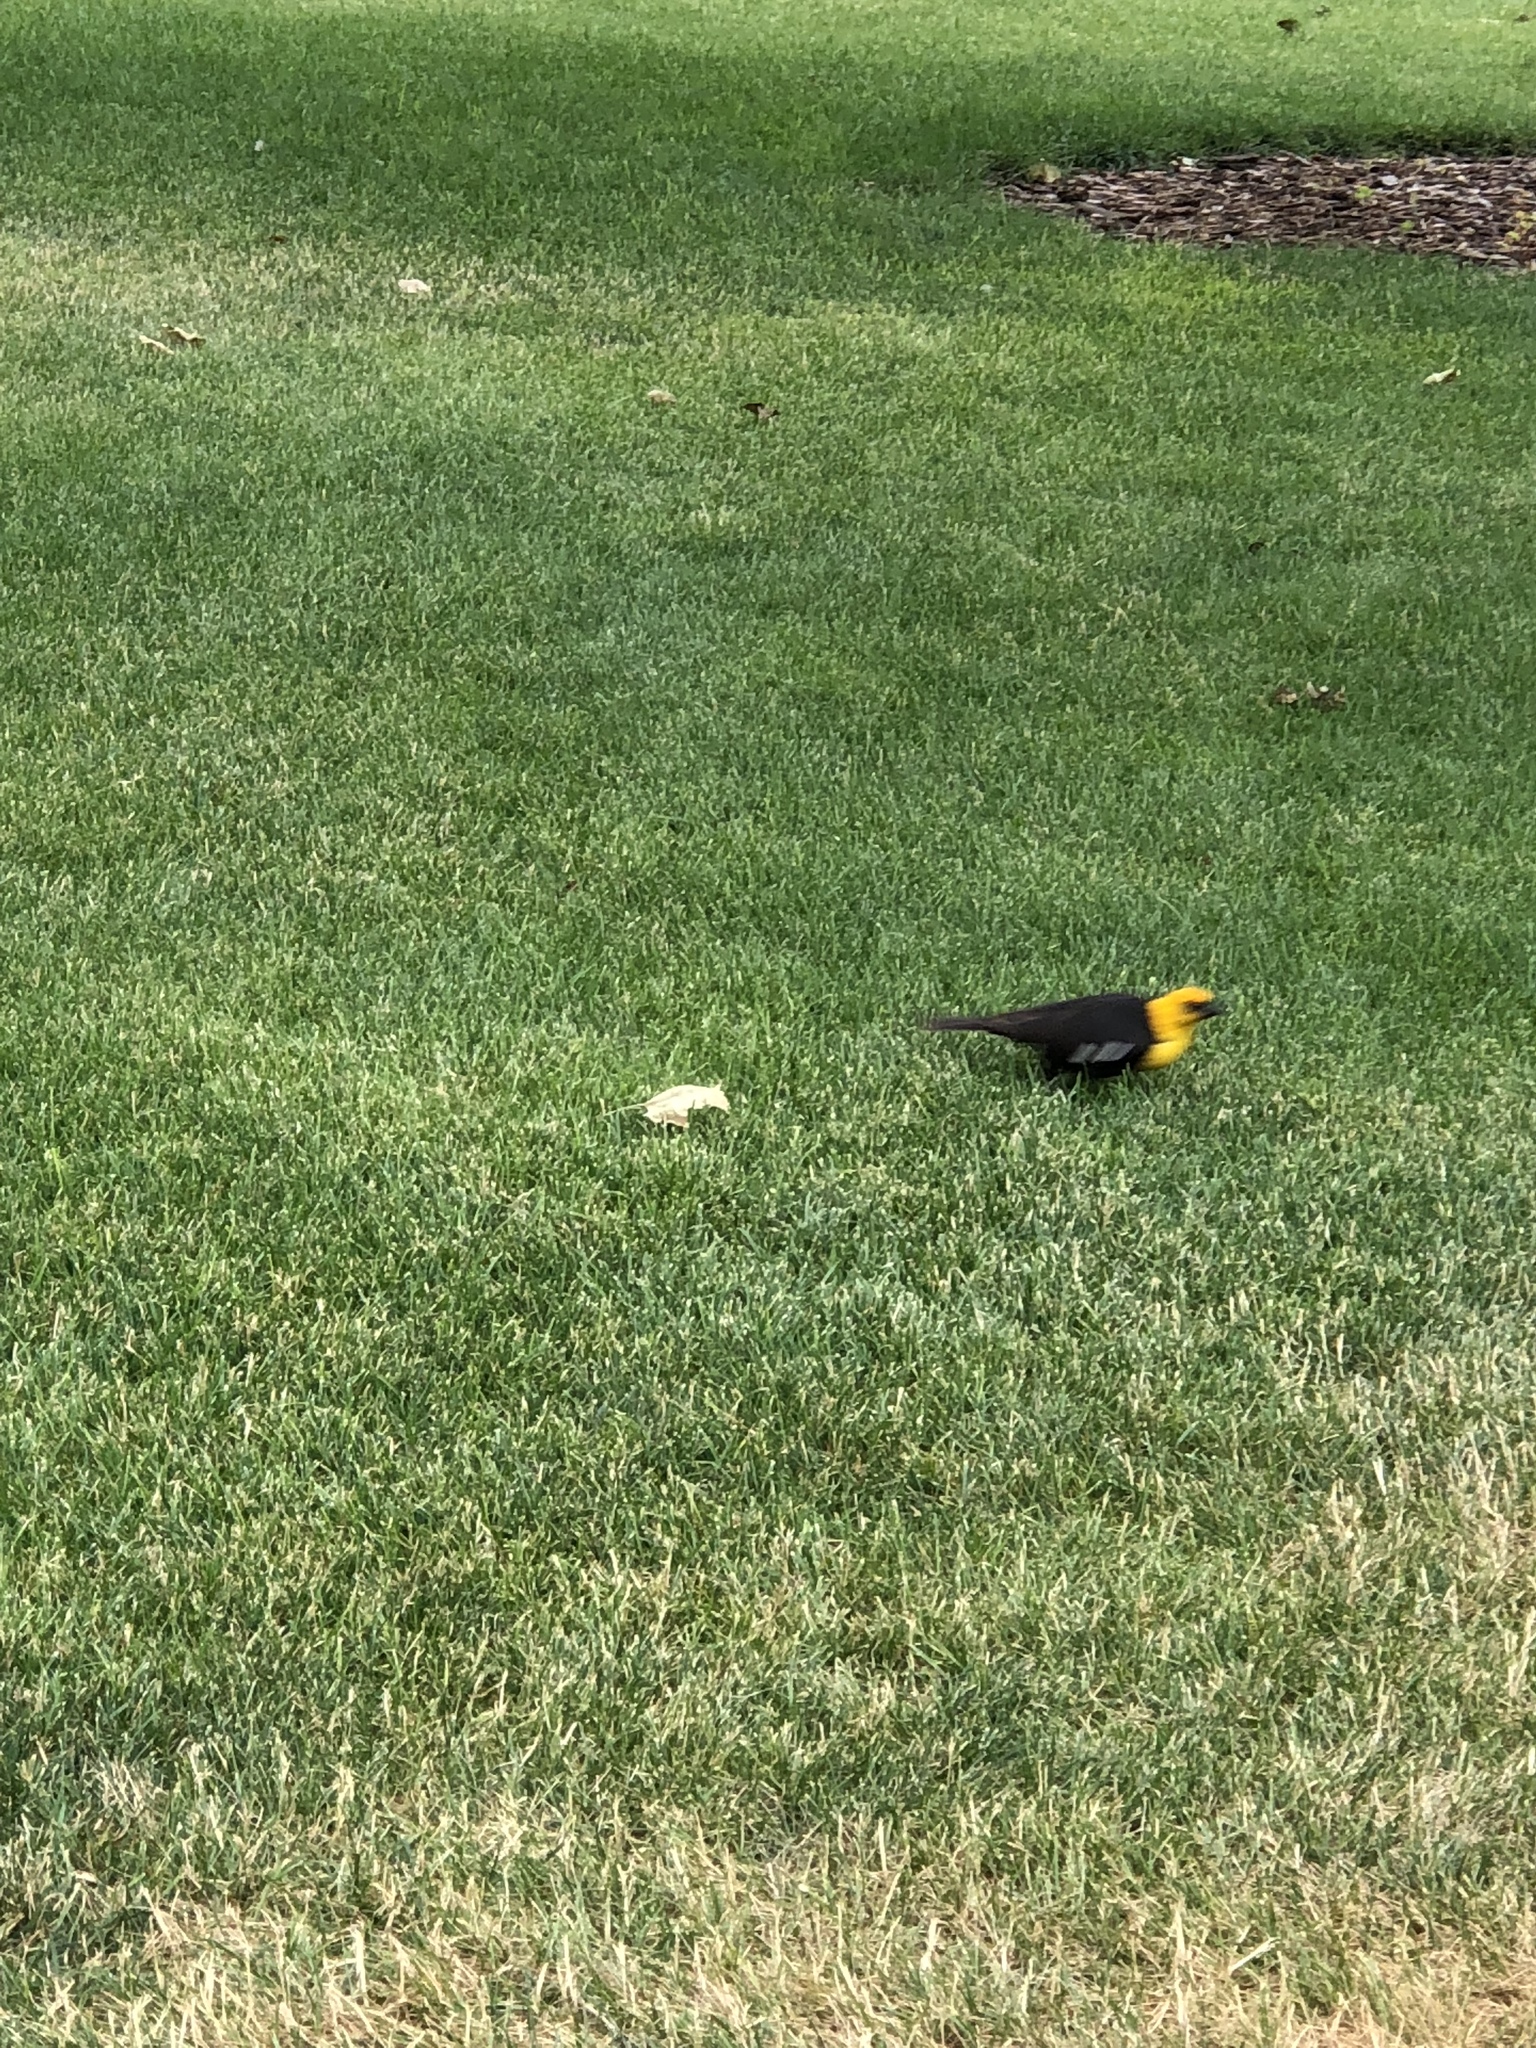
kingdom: Animalia
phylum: Chordata
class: Aves
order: Passeriformes
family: Icteridae
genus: Xanthocephalus
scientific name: Xanthocephalus xanthocephalus
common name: Yellow-headed blackbird
